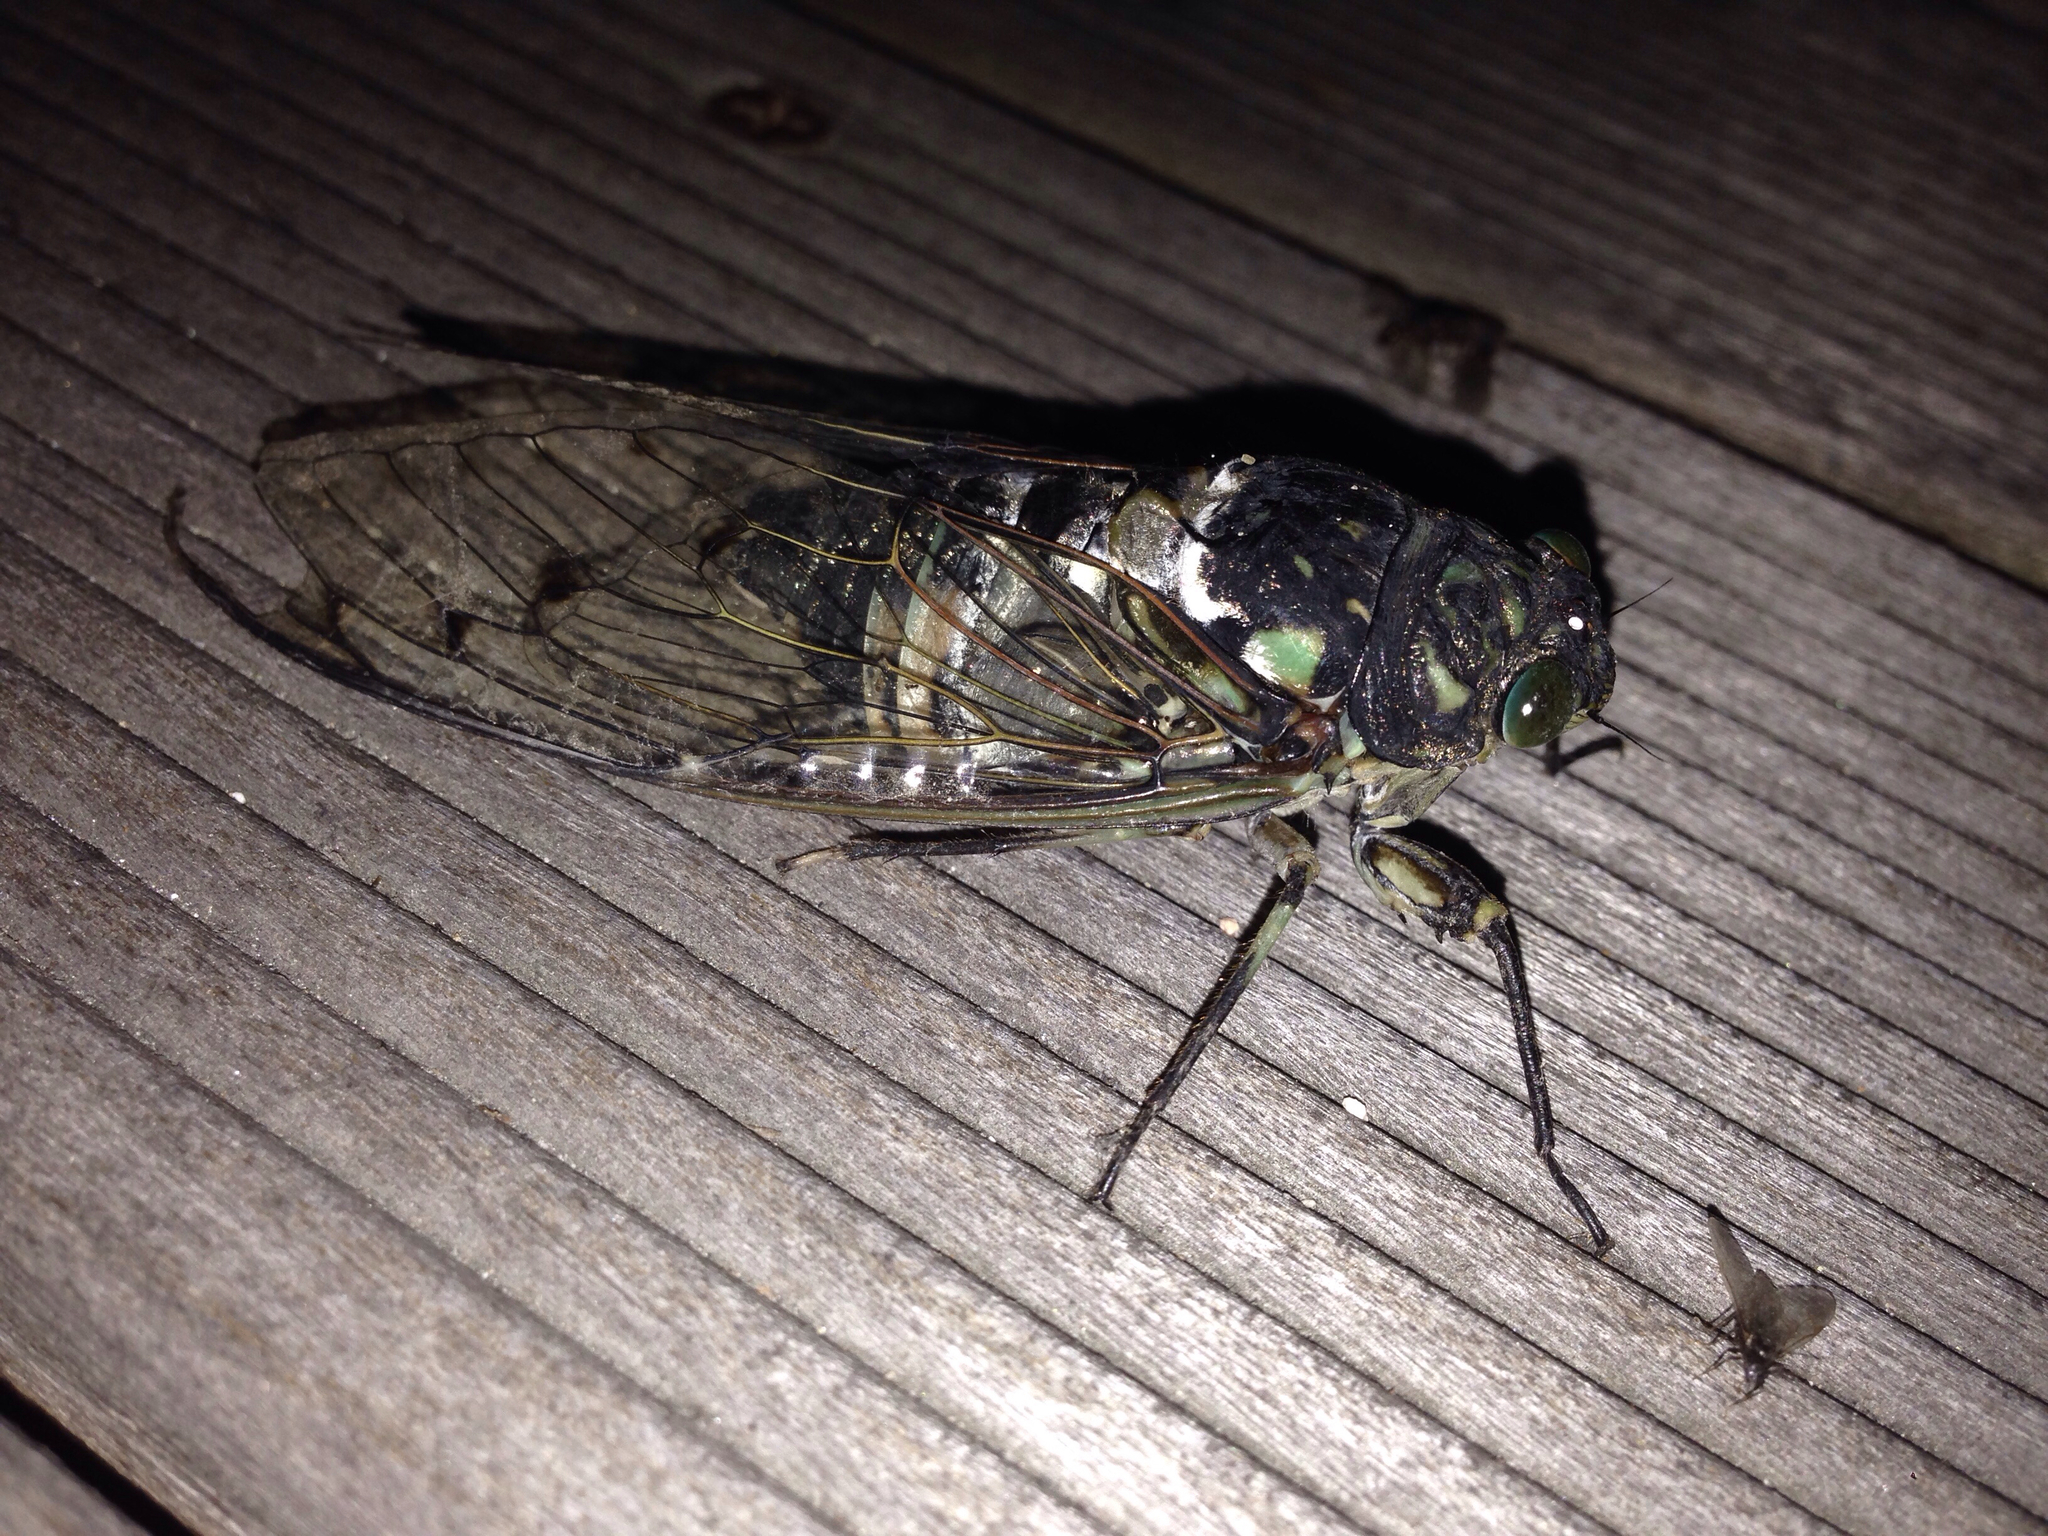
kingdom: Animalia
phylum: Arthropoda
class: Insecta
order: Hemiptera
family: Cicadidae
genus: Hyalessa
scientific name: Hyalessa maculaticollis
